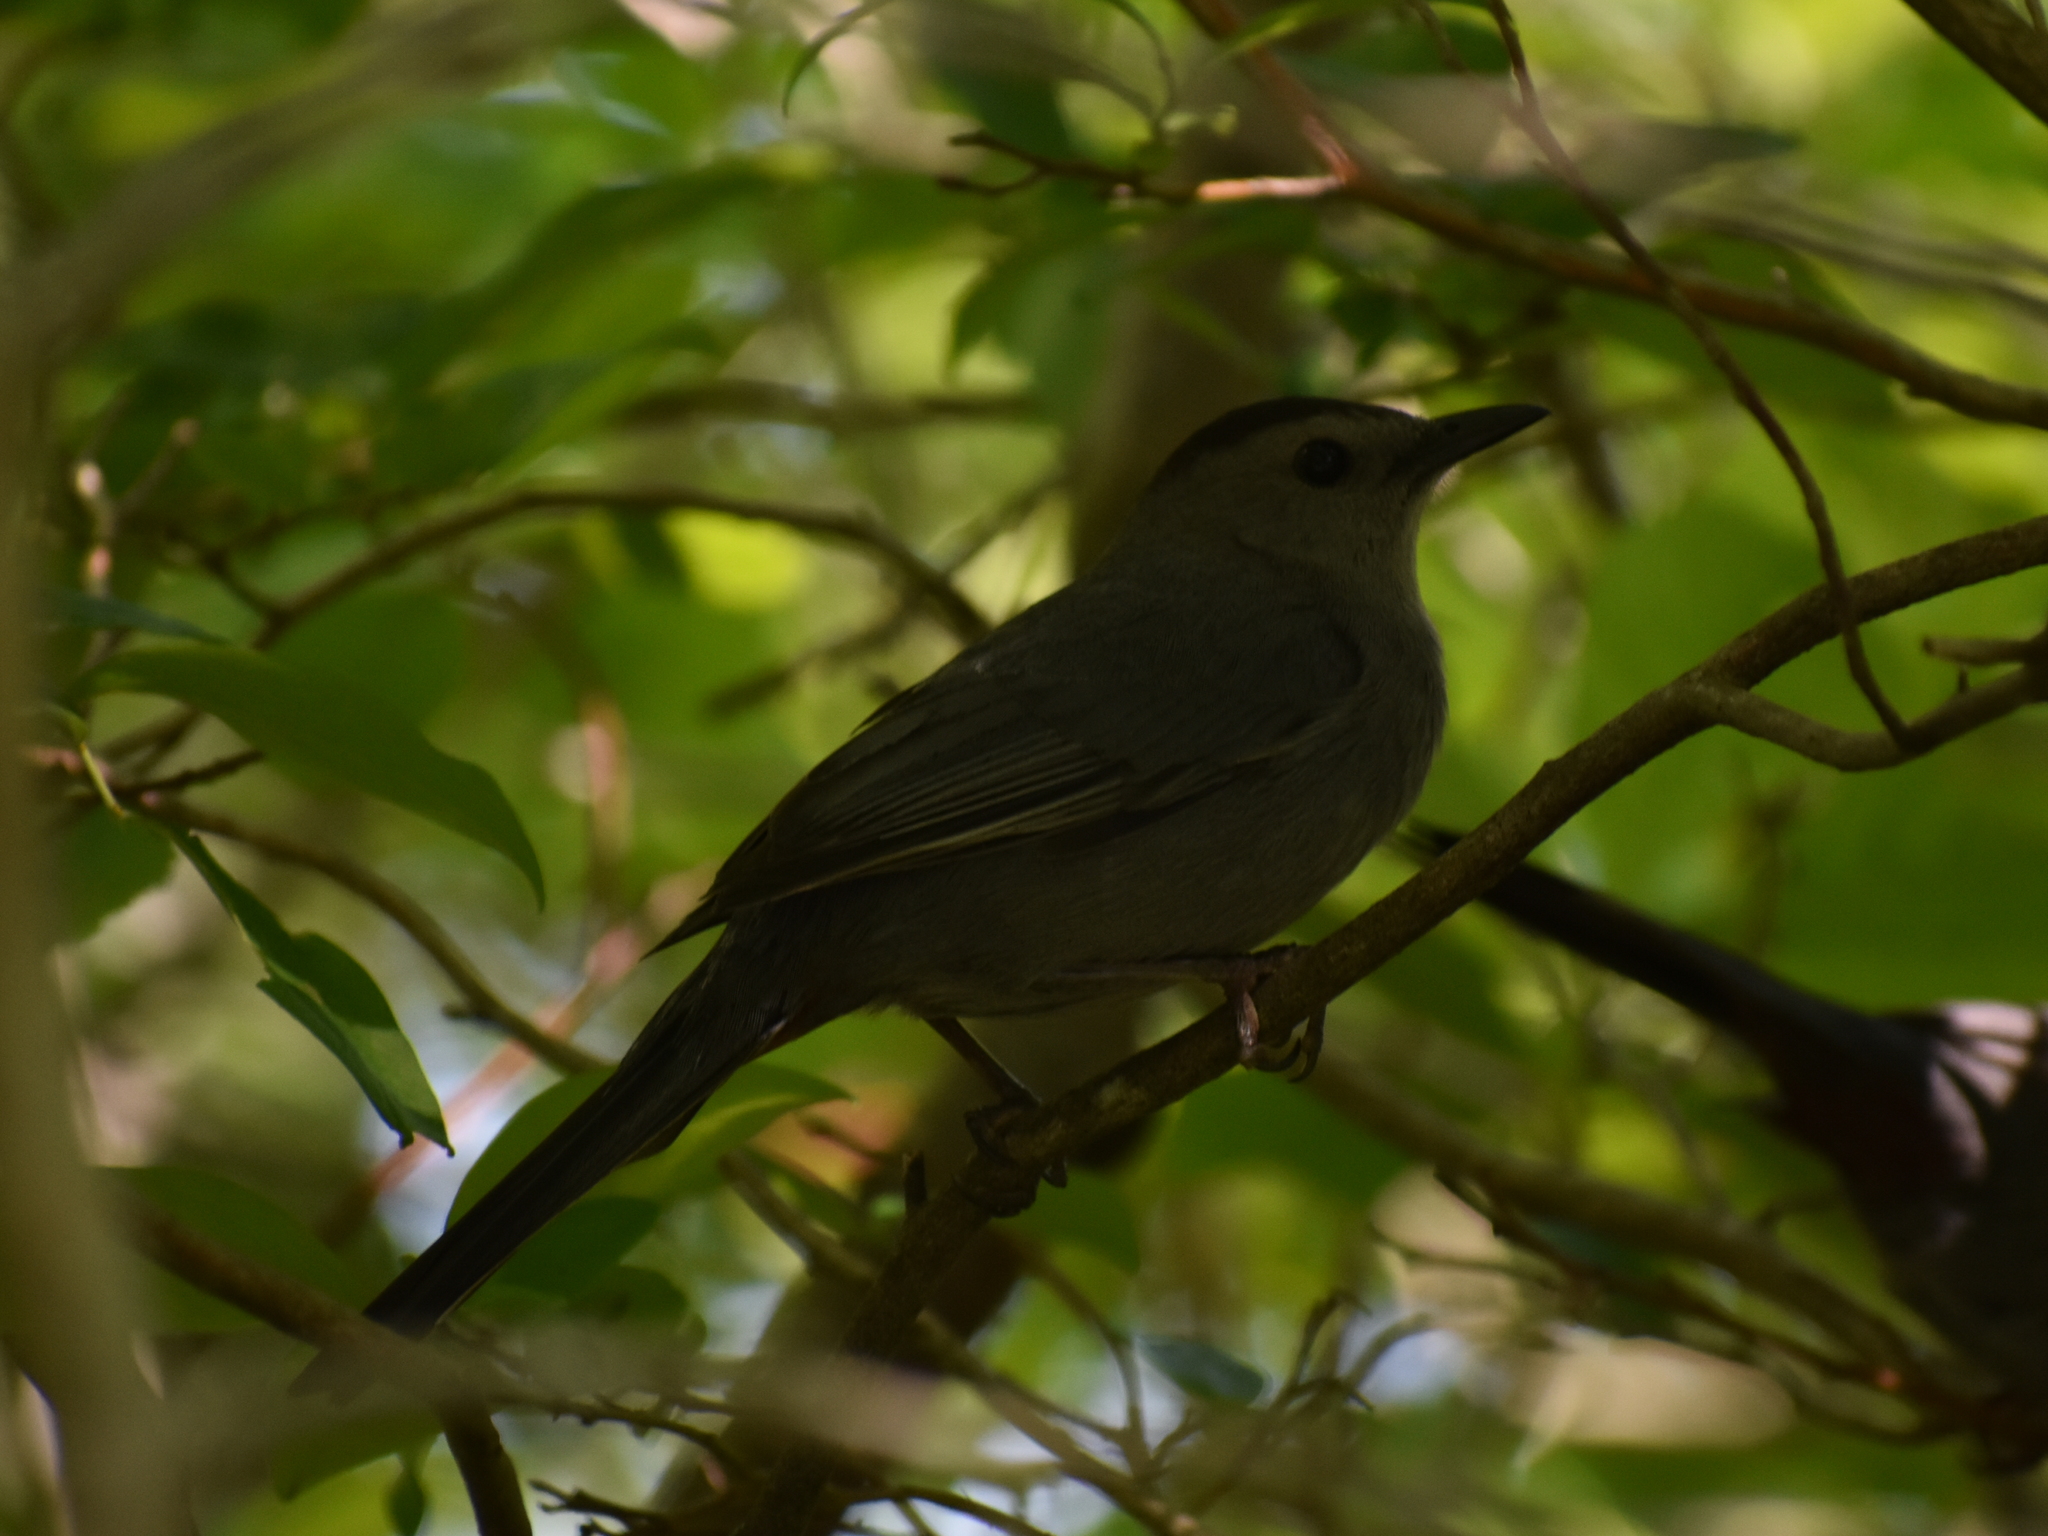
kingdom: Animalia
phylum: Chordata
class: Aves
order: Passeriformes
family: Mimidae
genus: Dumetella
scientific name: Dumetella carolinensis
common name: Gray catbird
